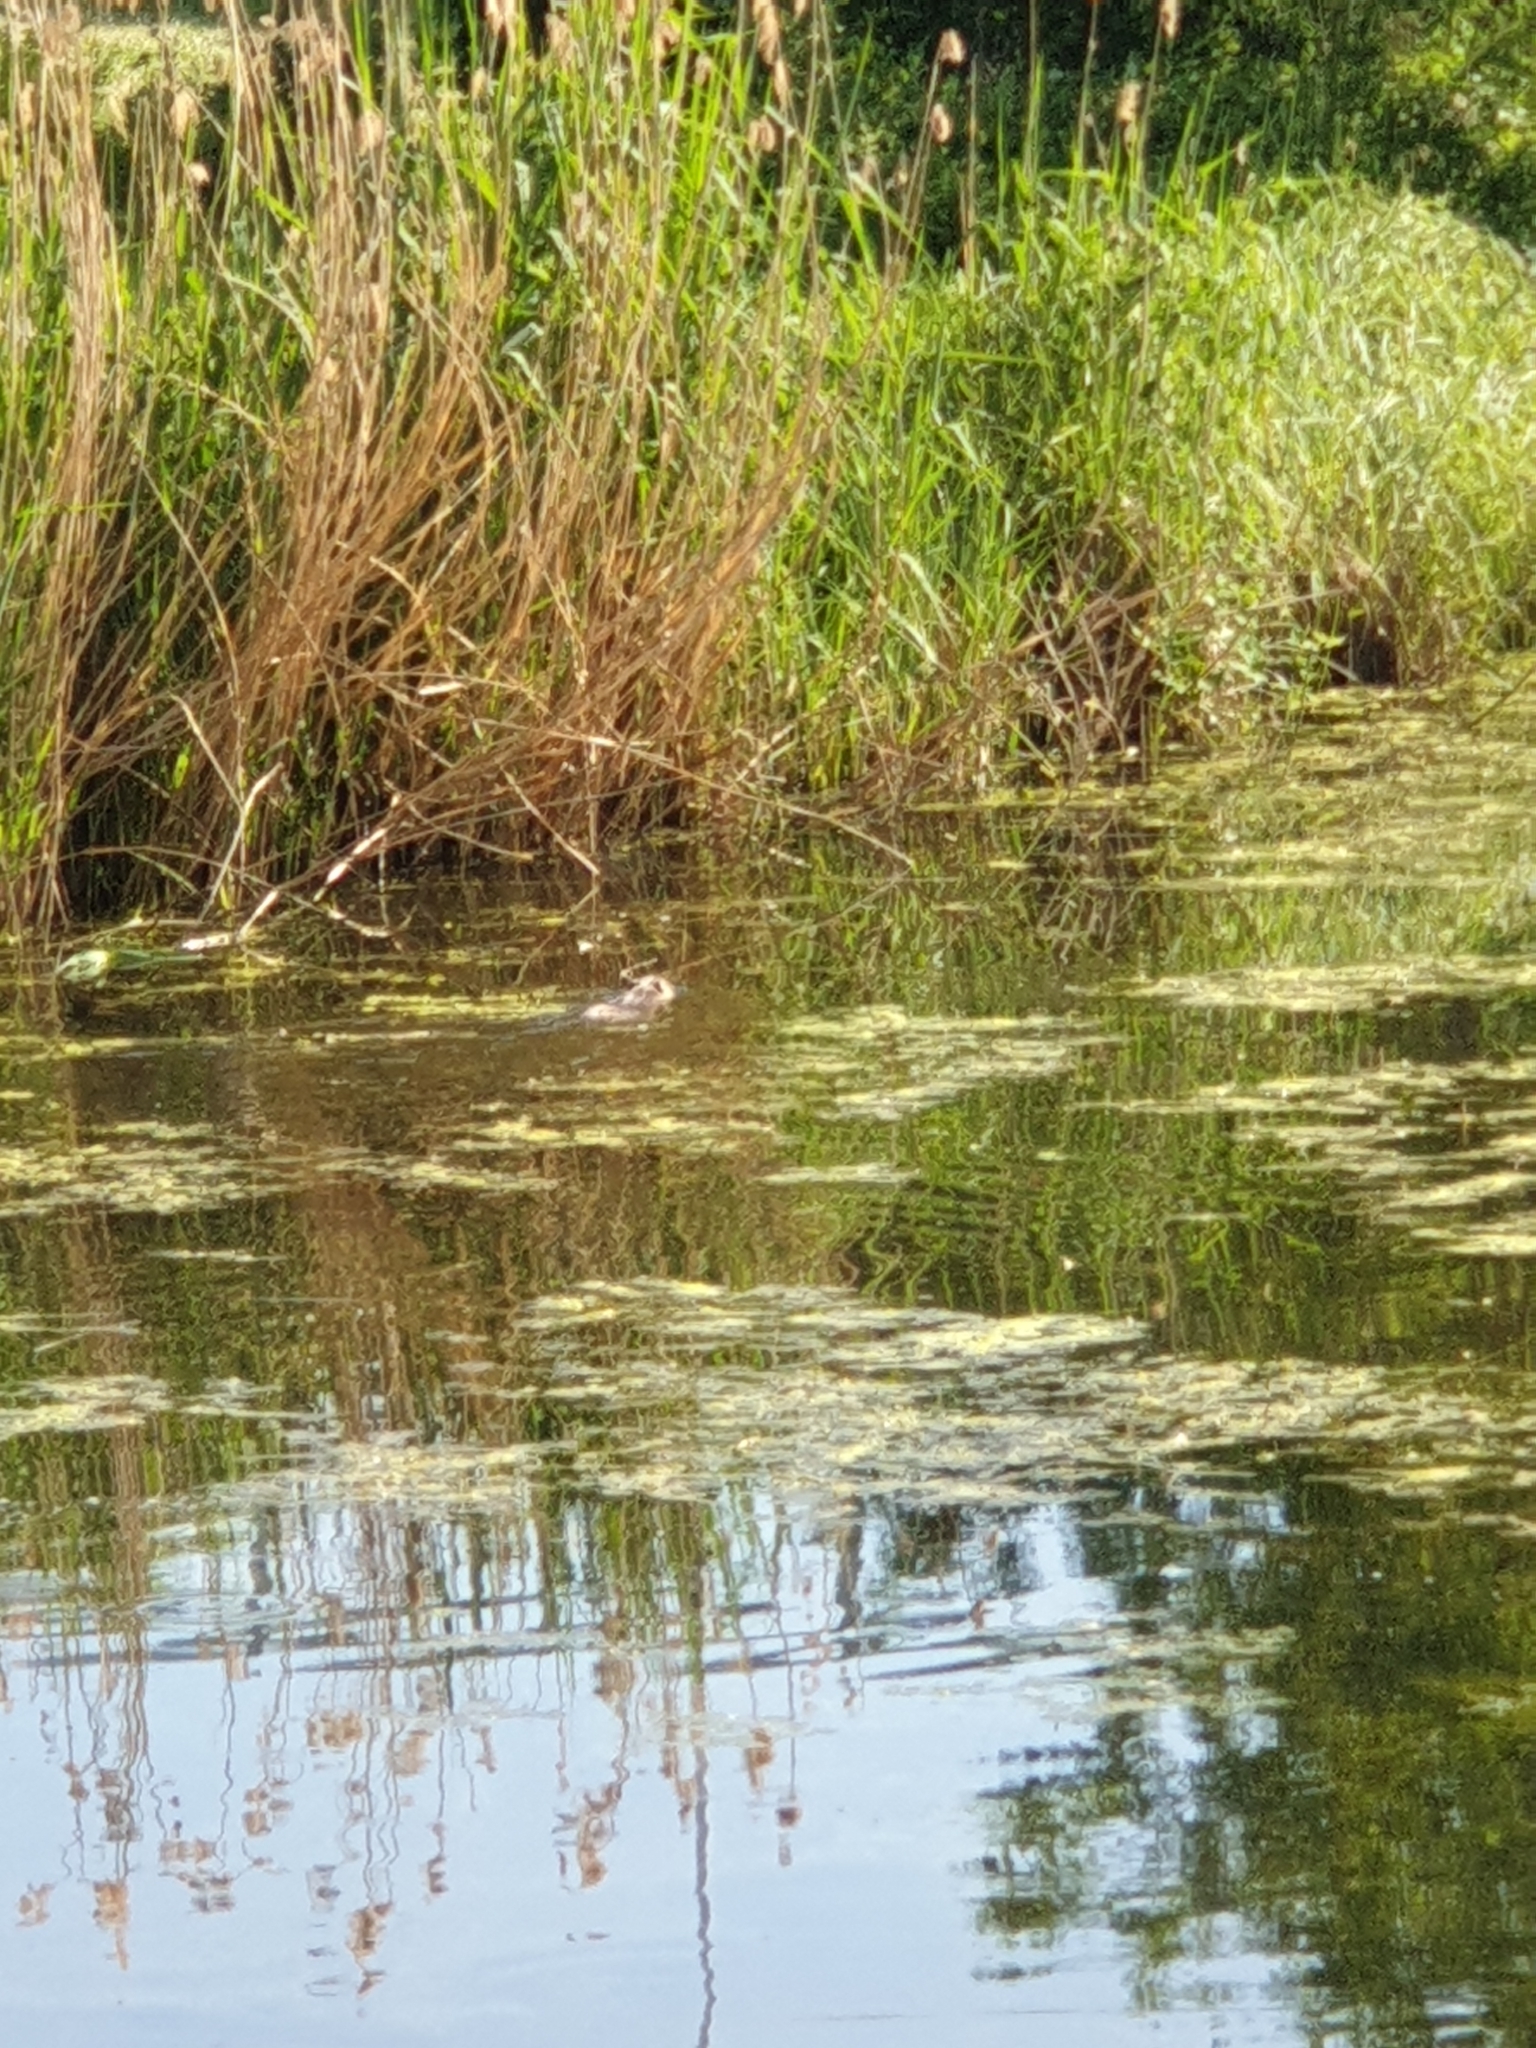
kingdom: Animalia
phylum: Chordata
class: Mammalia
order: Rodentia
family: Myocastoridae
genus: Myocastor
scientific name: Myocastor coypus
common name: Coypu
